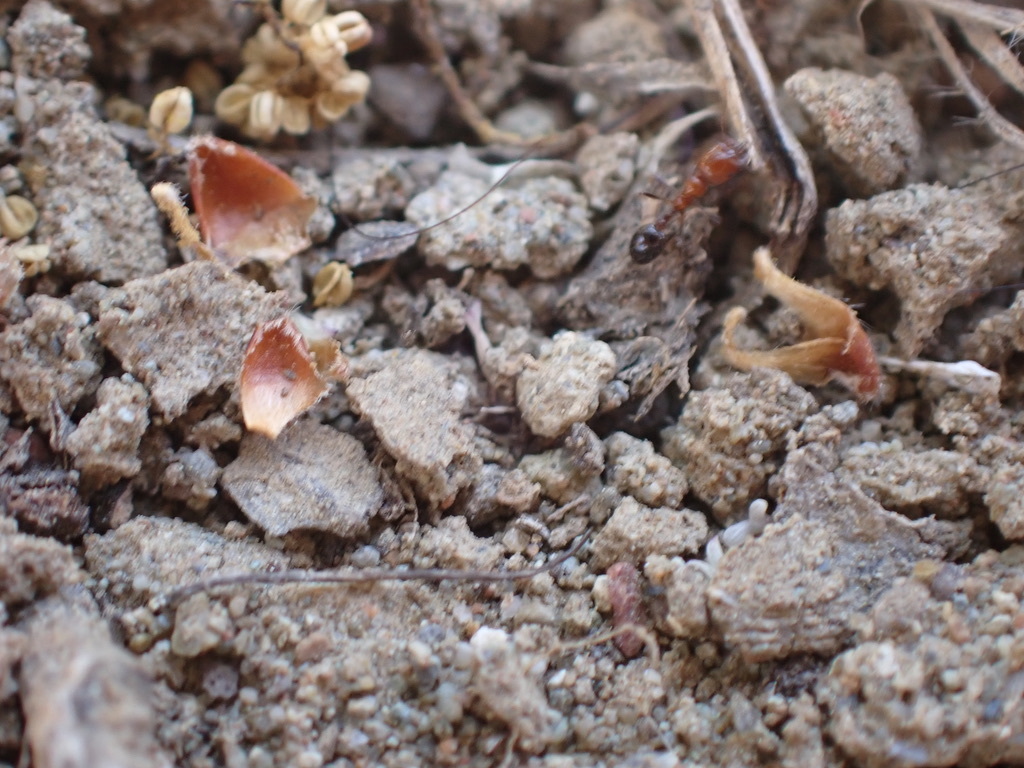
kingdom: Animalia
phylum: Arthropoda
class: Insecta
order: Hymenoptera
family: Formicidae
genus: Solenopsis
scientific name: Solenopsis xyloni
